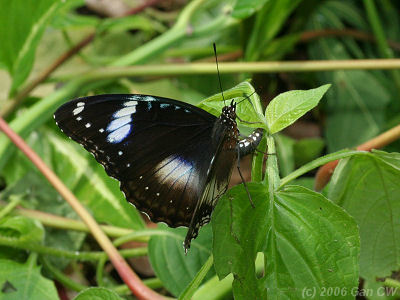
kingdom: Animalia
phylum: Arthropoda
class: Insecta
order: Lepidoptera
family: Nymphalidae
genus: Hypolimnas
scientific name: Hypolimnas bolina
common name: Great eggfly
